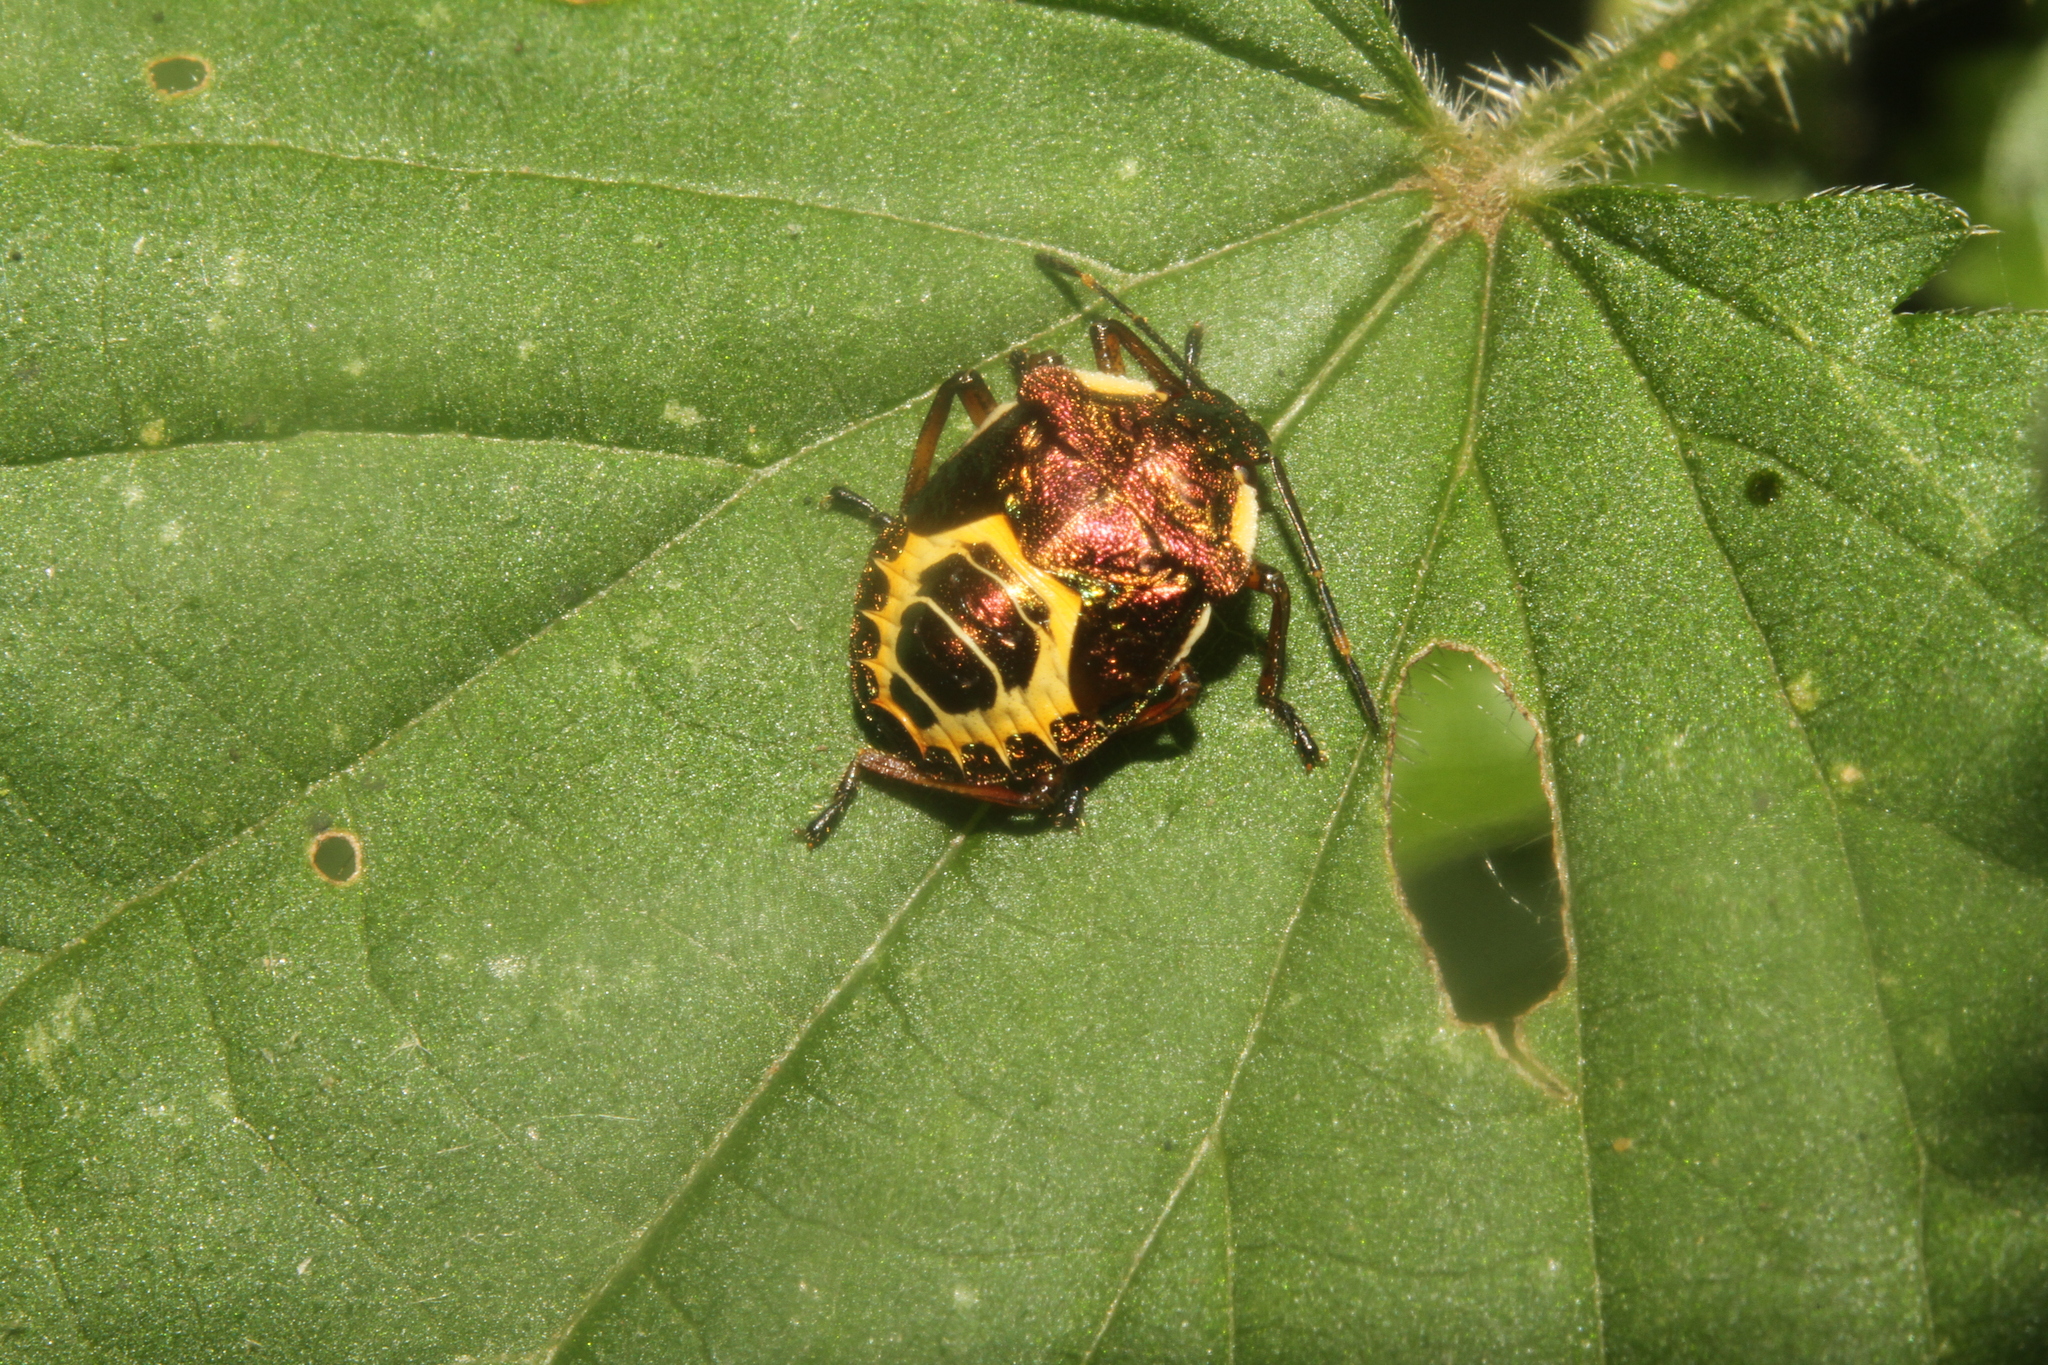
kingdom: Animalia
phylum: Arthropoda
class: Insecta
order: Hemiptera
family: Pentatomidae
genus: Troilus
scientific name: Troilus luridus
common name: Bronze shieldbug
